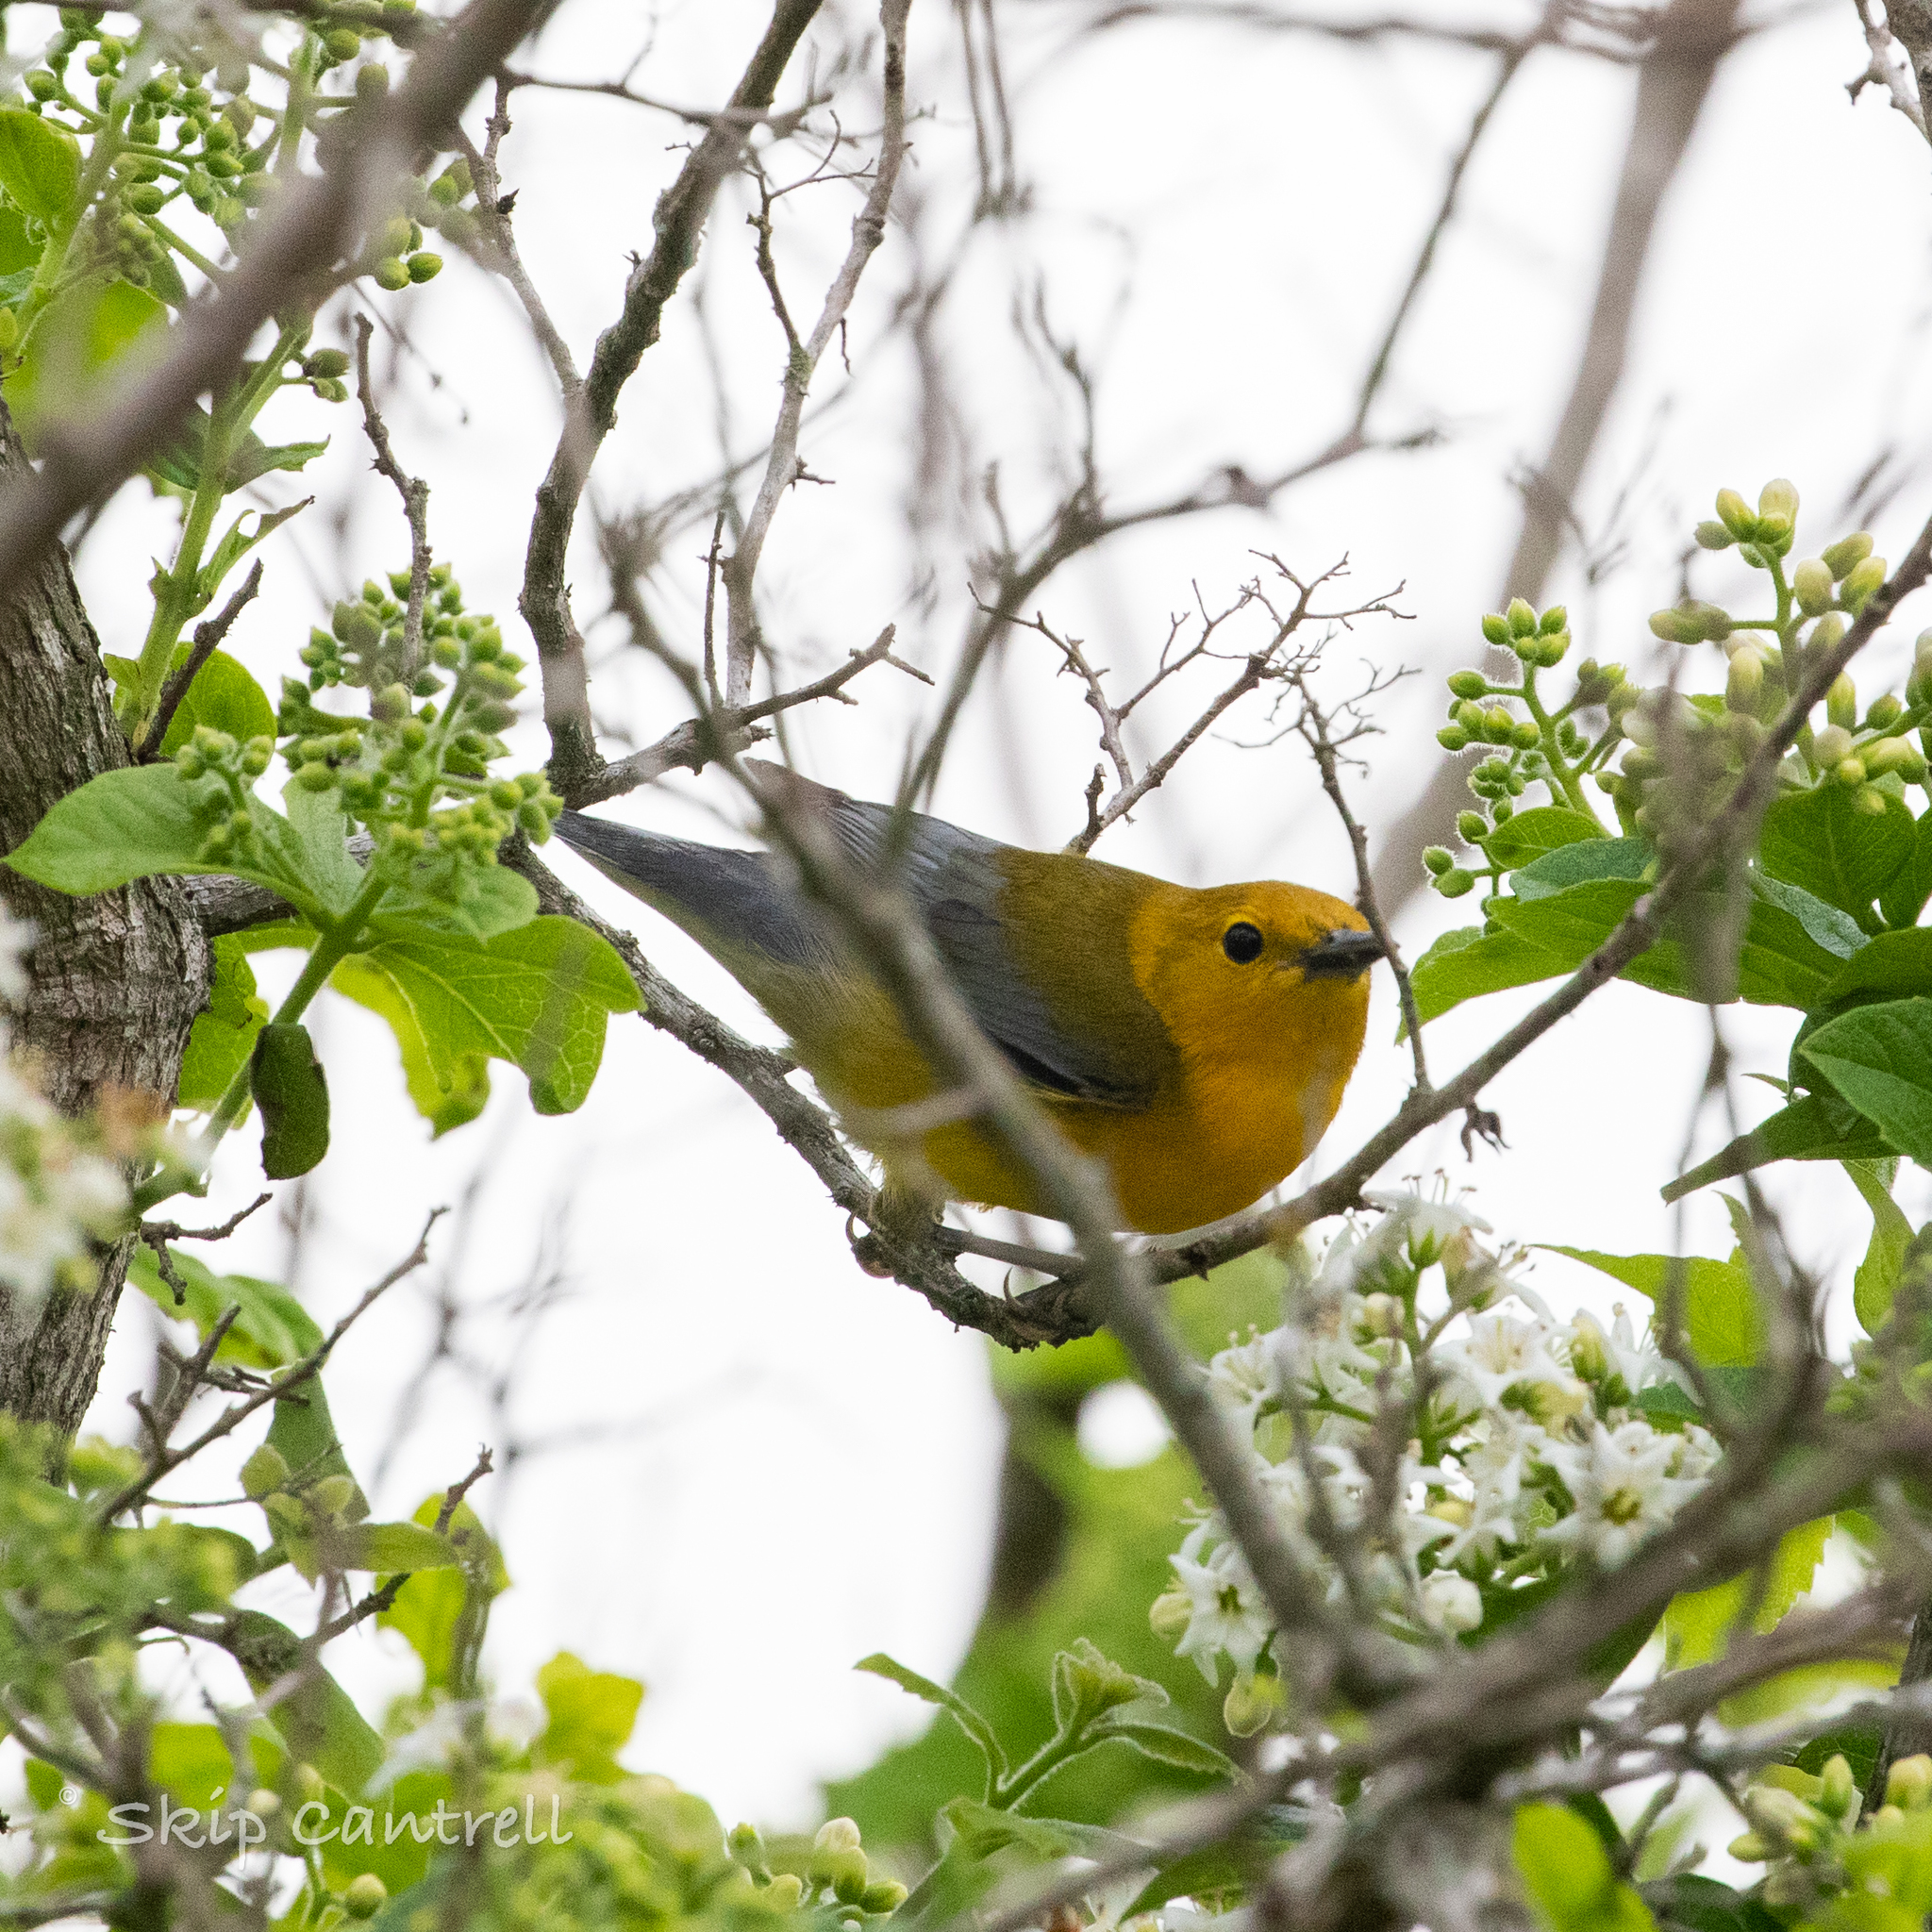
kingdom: Animalia
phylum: Chordata
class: Aves
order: Passeriformes
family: Parulidae
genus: Protonotaria
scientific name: Protonotaria citrea
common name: Prothonotary warbler
